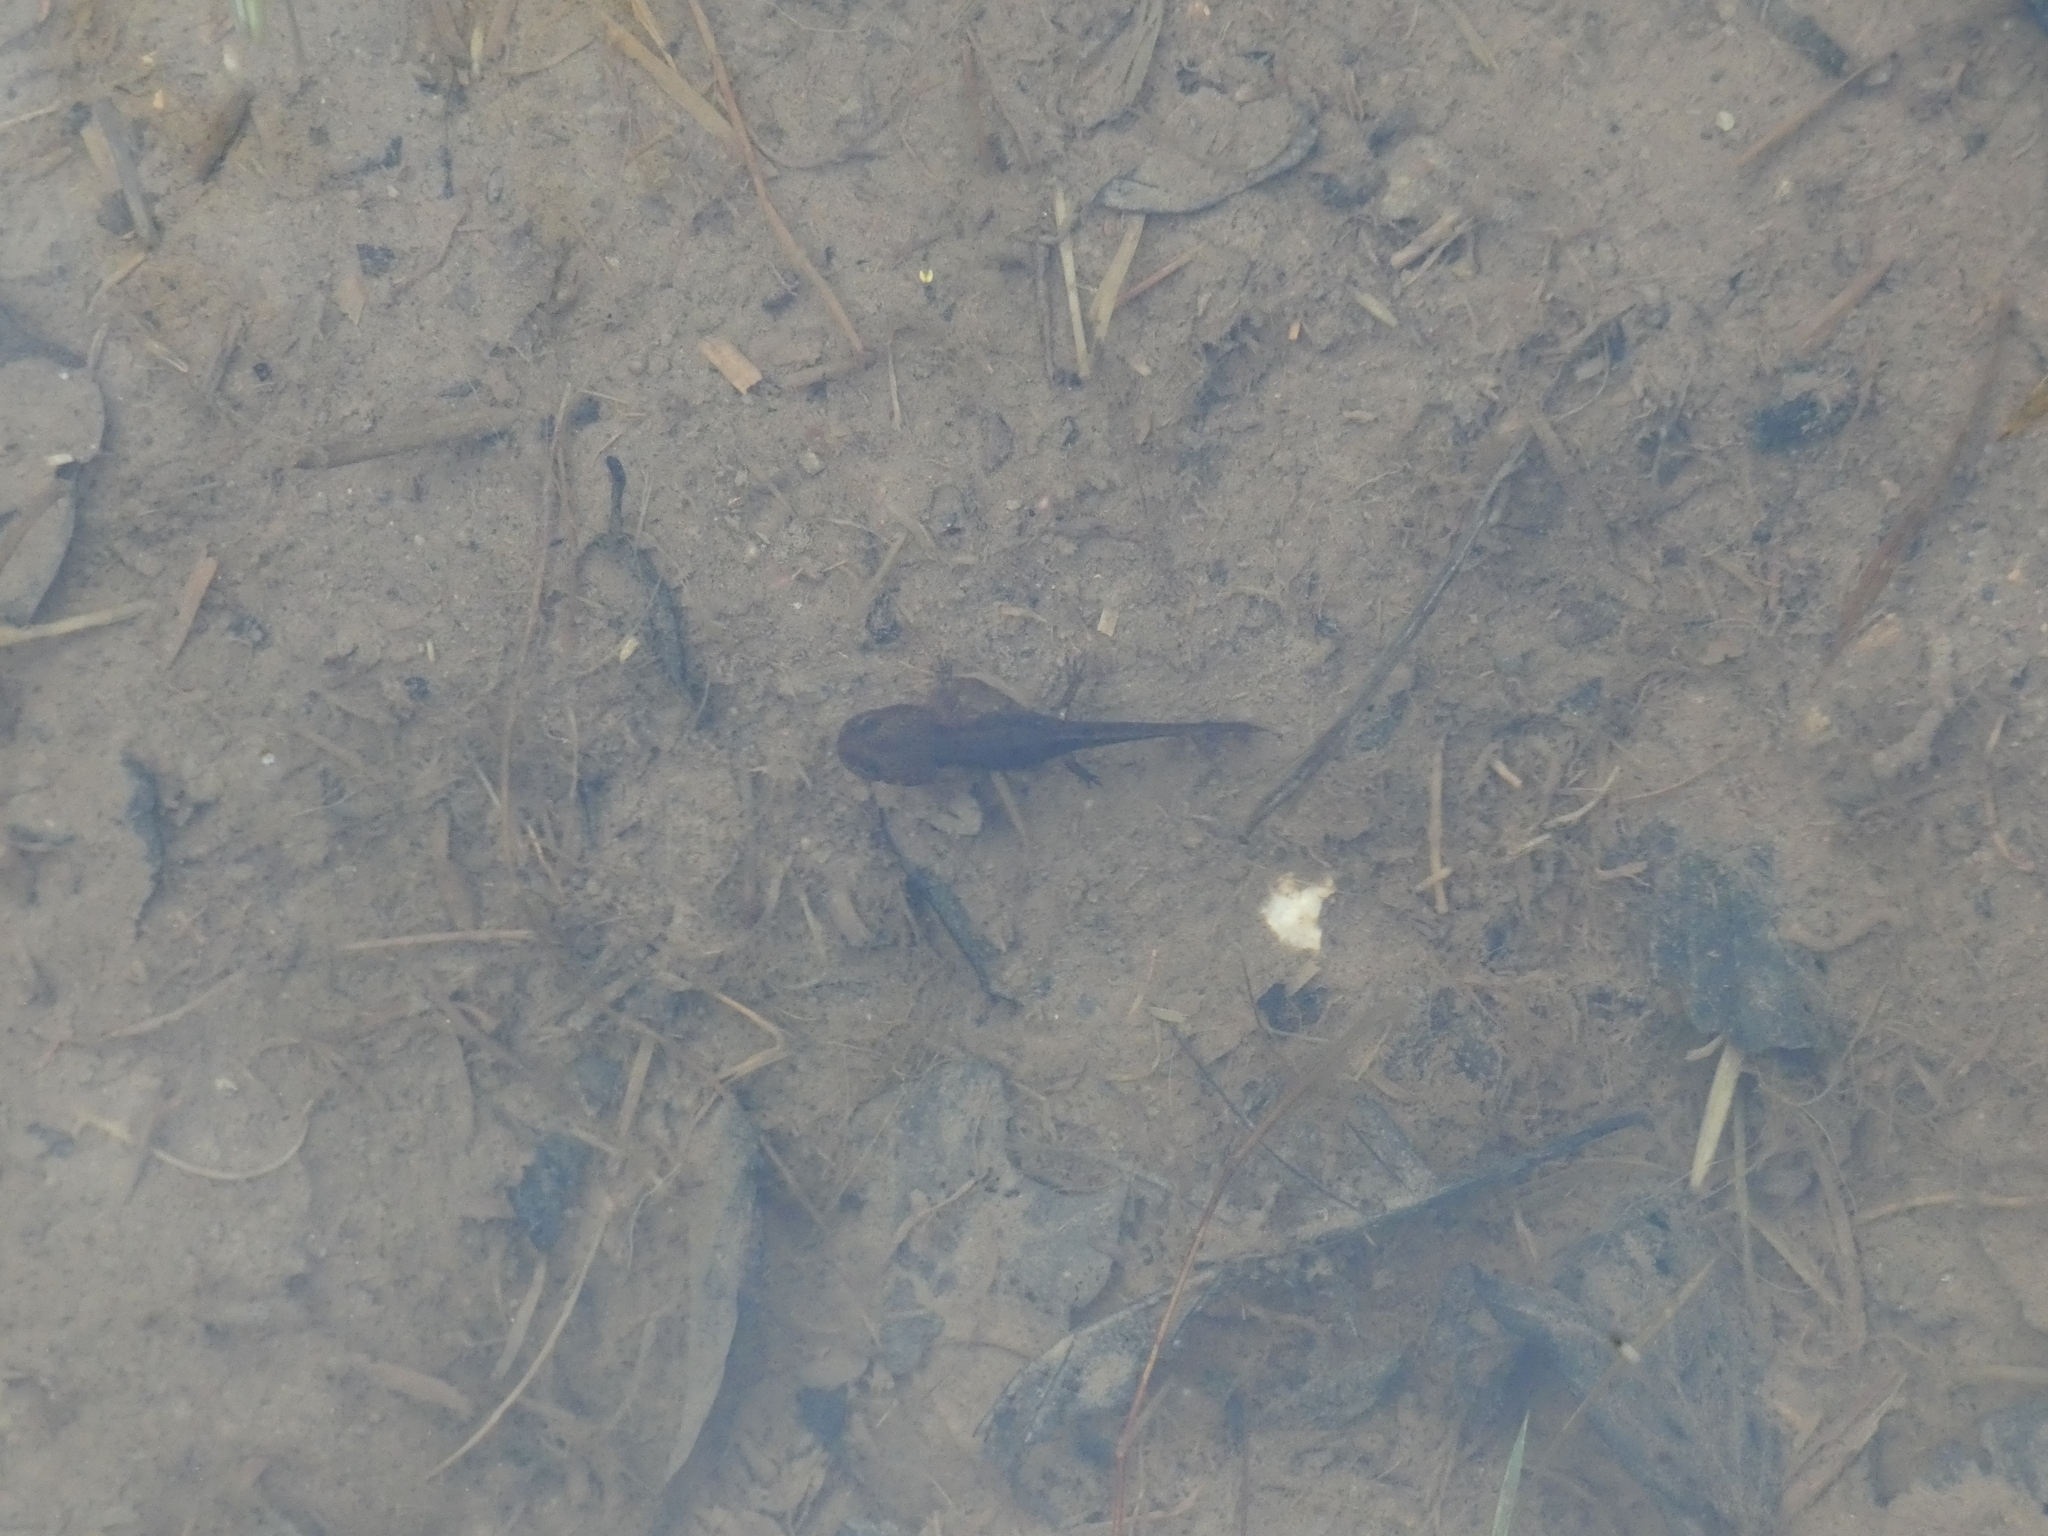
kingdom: Animalia
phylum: Chordata
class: Amphibia
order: Caudata
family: Salamandridae
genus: Salamandra
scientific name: Salamandra salamandra
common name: Fire salamander
